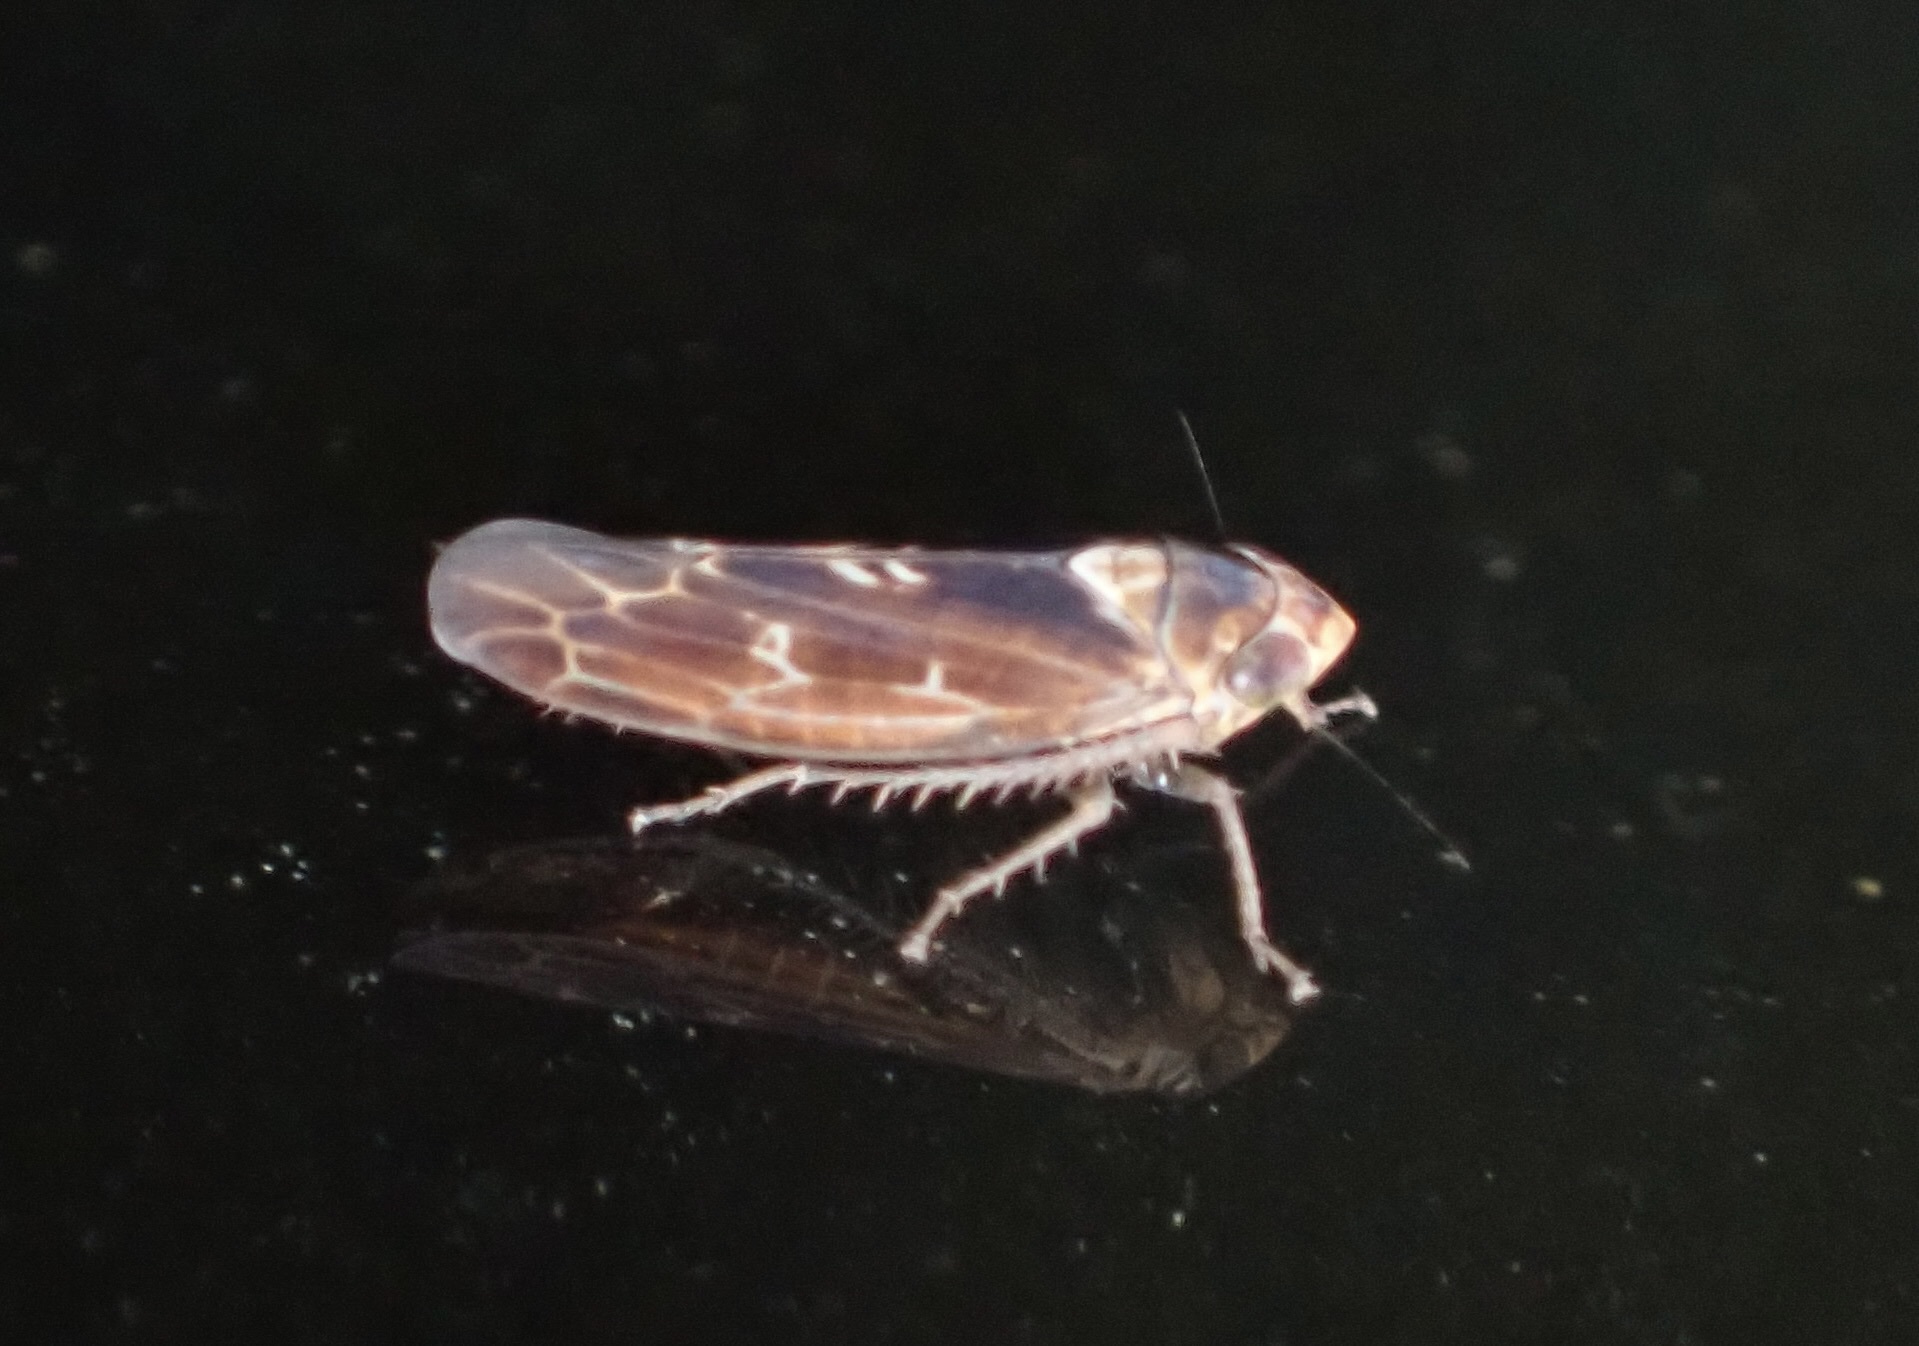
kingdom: Animalia
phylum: Arthropoda
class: Insecta
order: Hemiptera
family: Cicadellidae
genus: Colladonus
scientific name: Colladonus sannio
